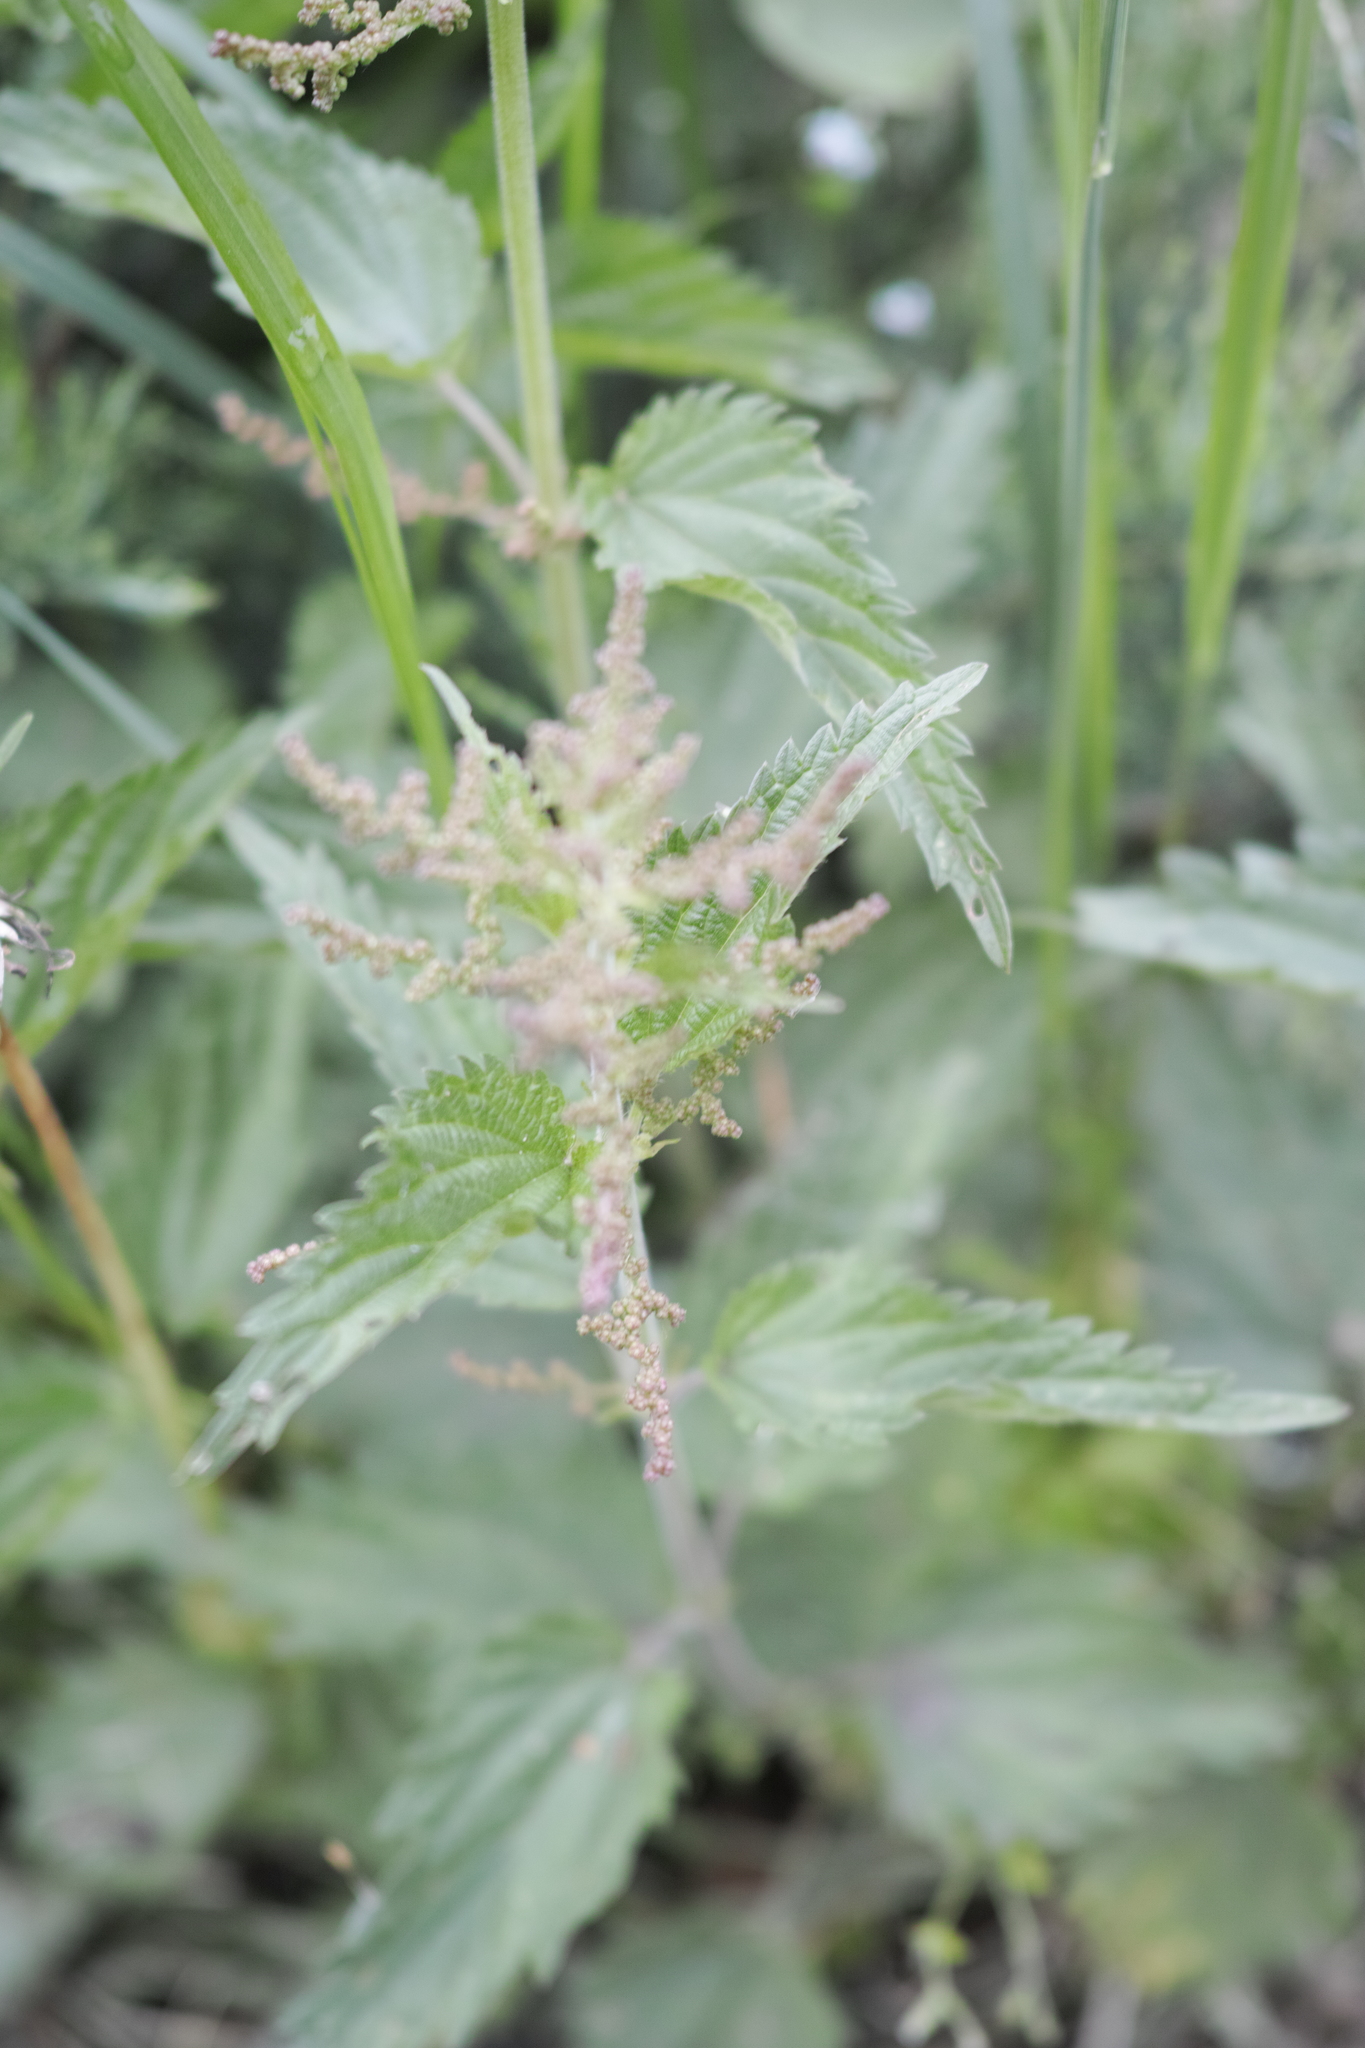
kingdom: Plantae
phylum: Tracheophyta
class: Magnoliopsida
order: Rosales
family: Urticaceae
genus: Urtica
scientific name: Urtica dioica
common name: Common nettle
